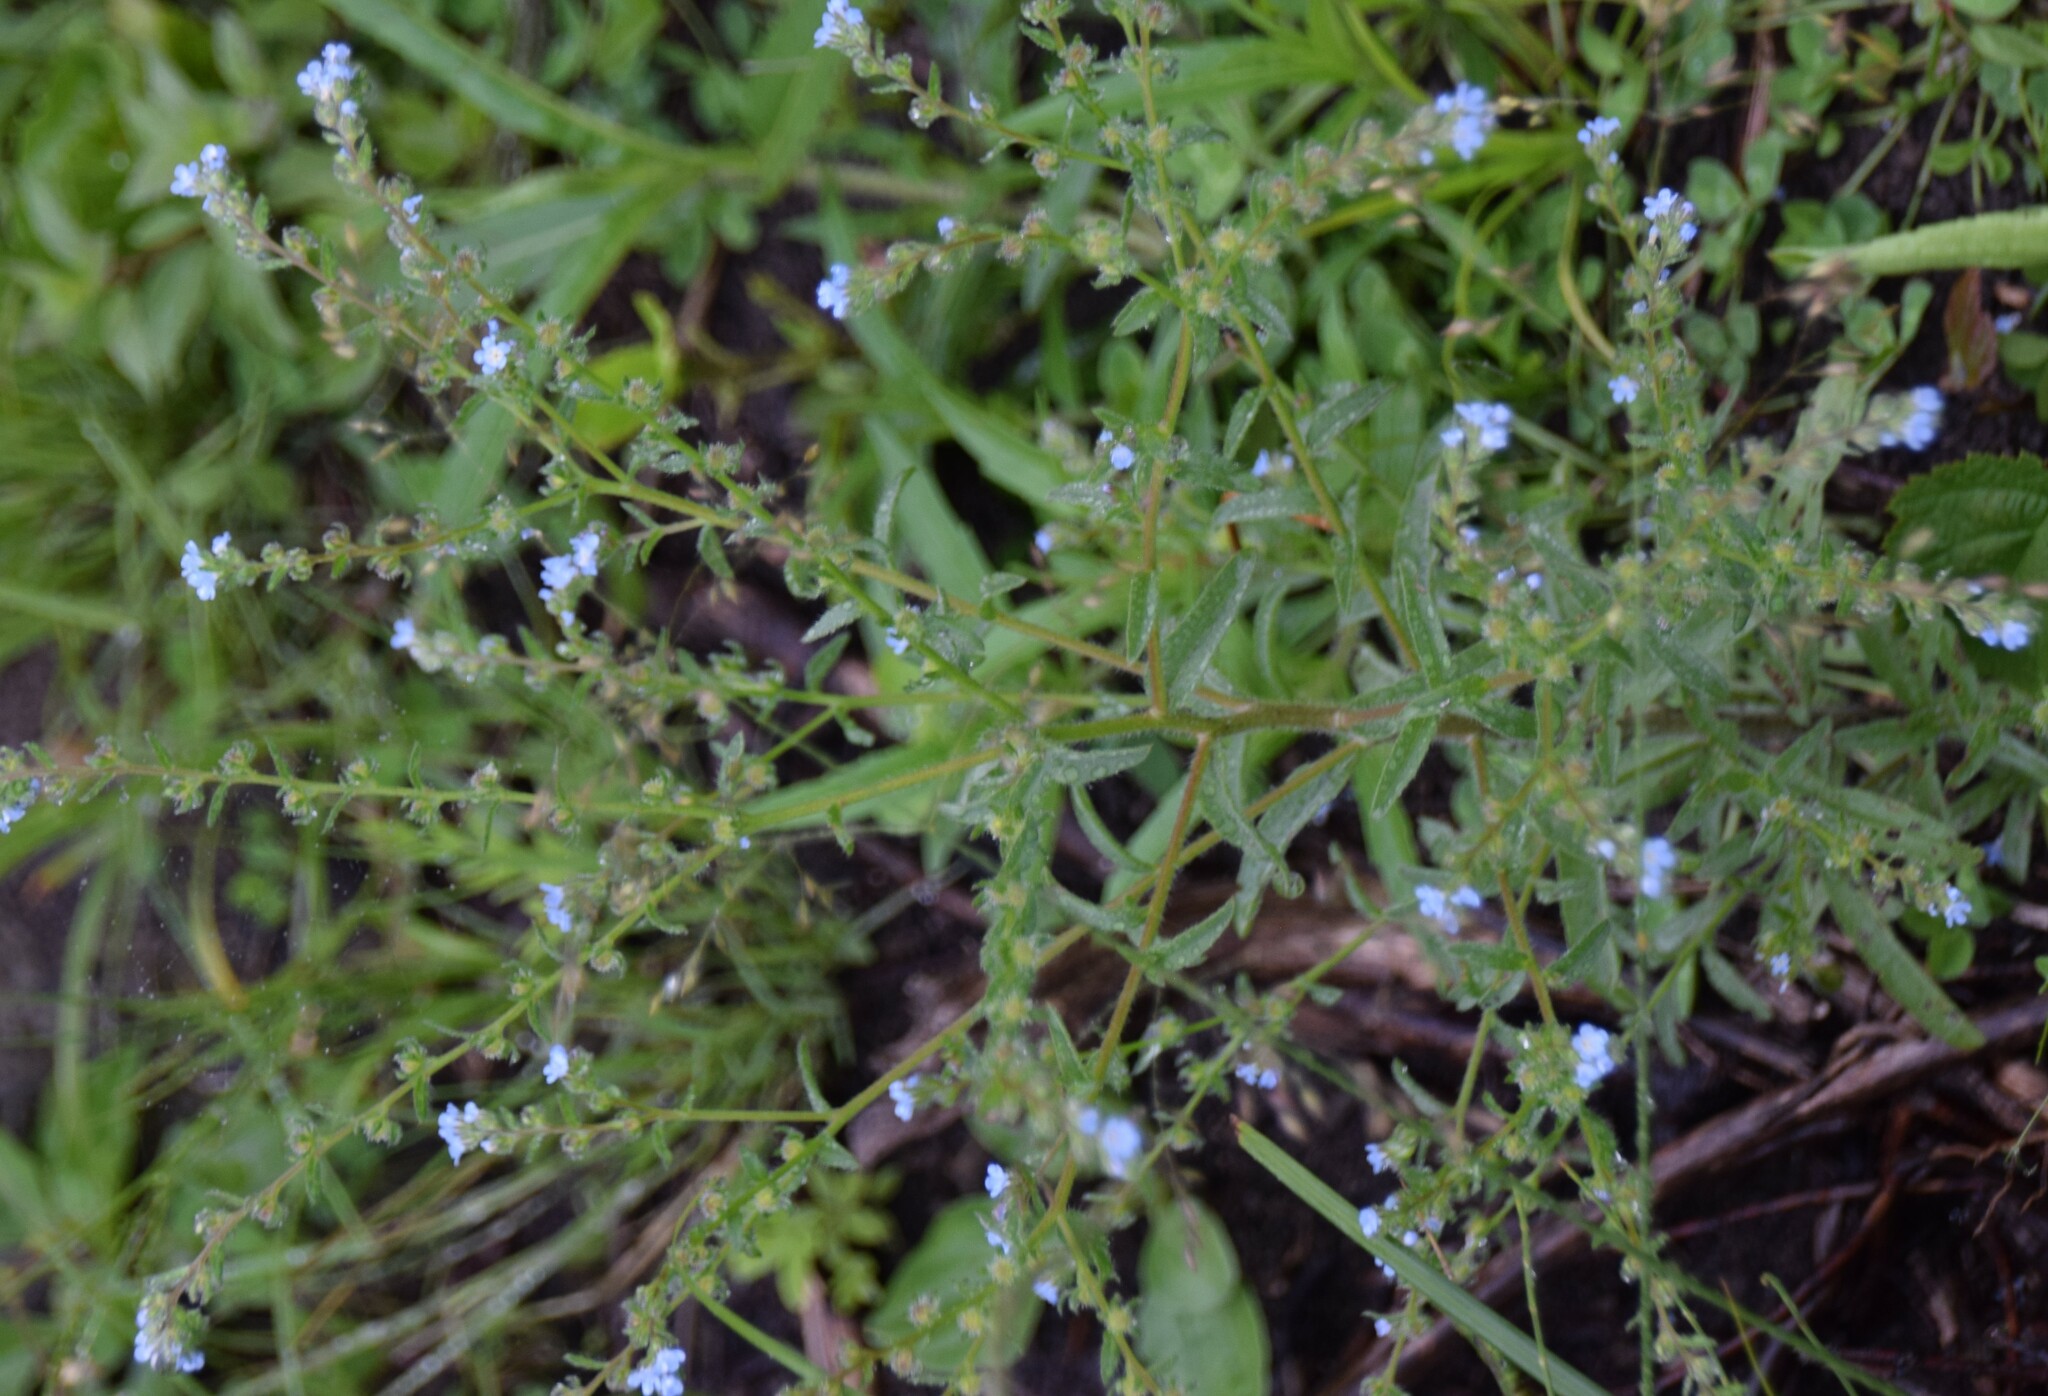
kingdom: Plantae
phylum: Tracheophyta
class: Magnoliopsida
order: Boraginales
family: Boraginaceae
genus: Lappula
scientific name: Lappula squarrosa
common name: European stickseed
